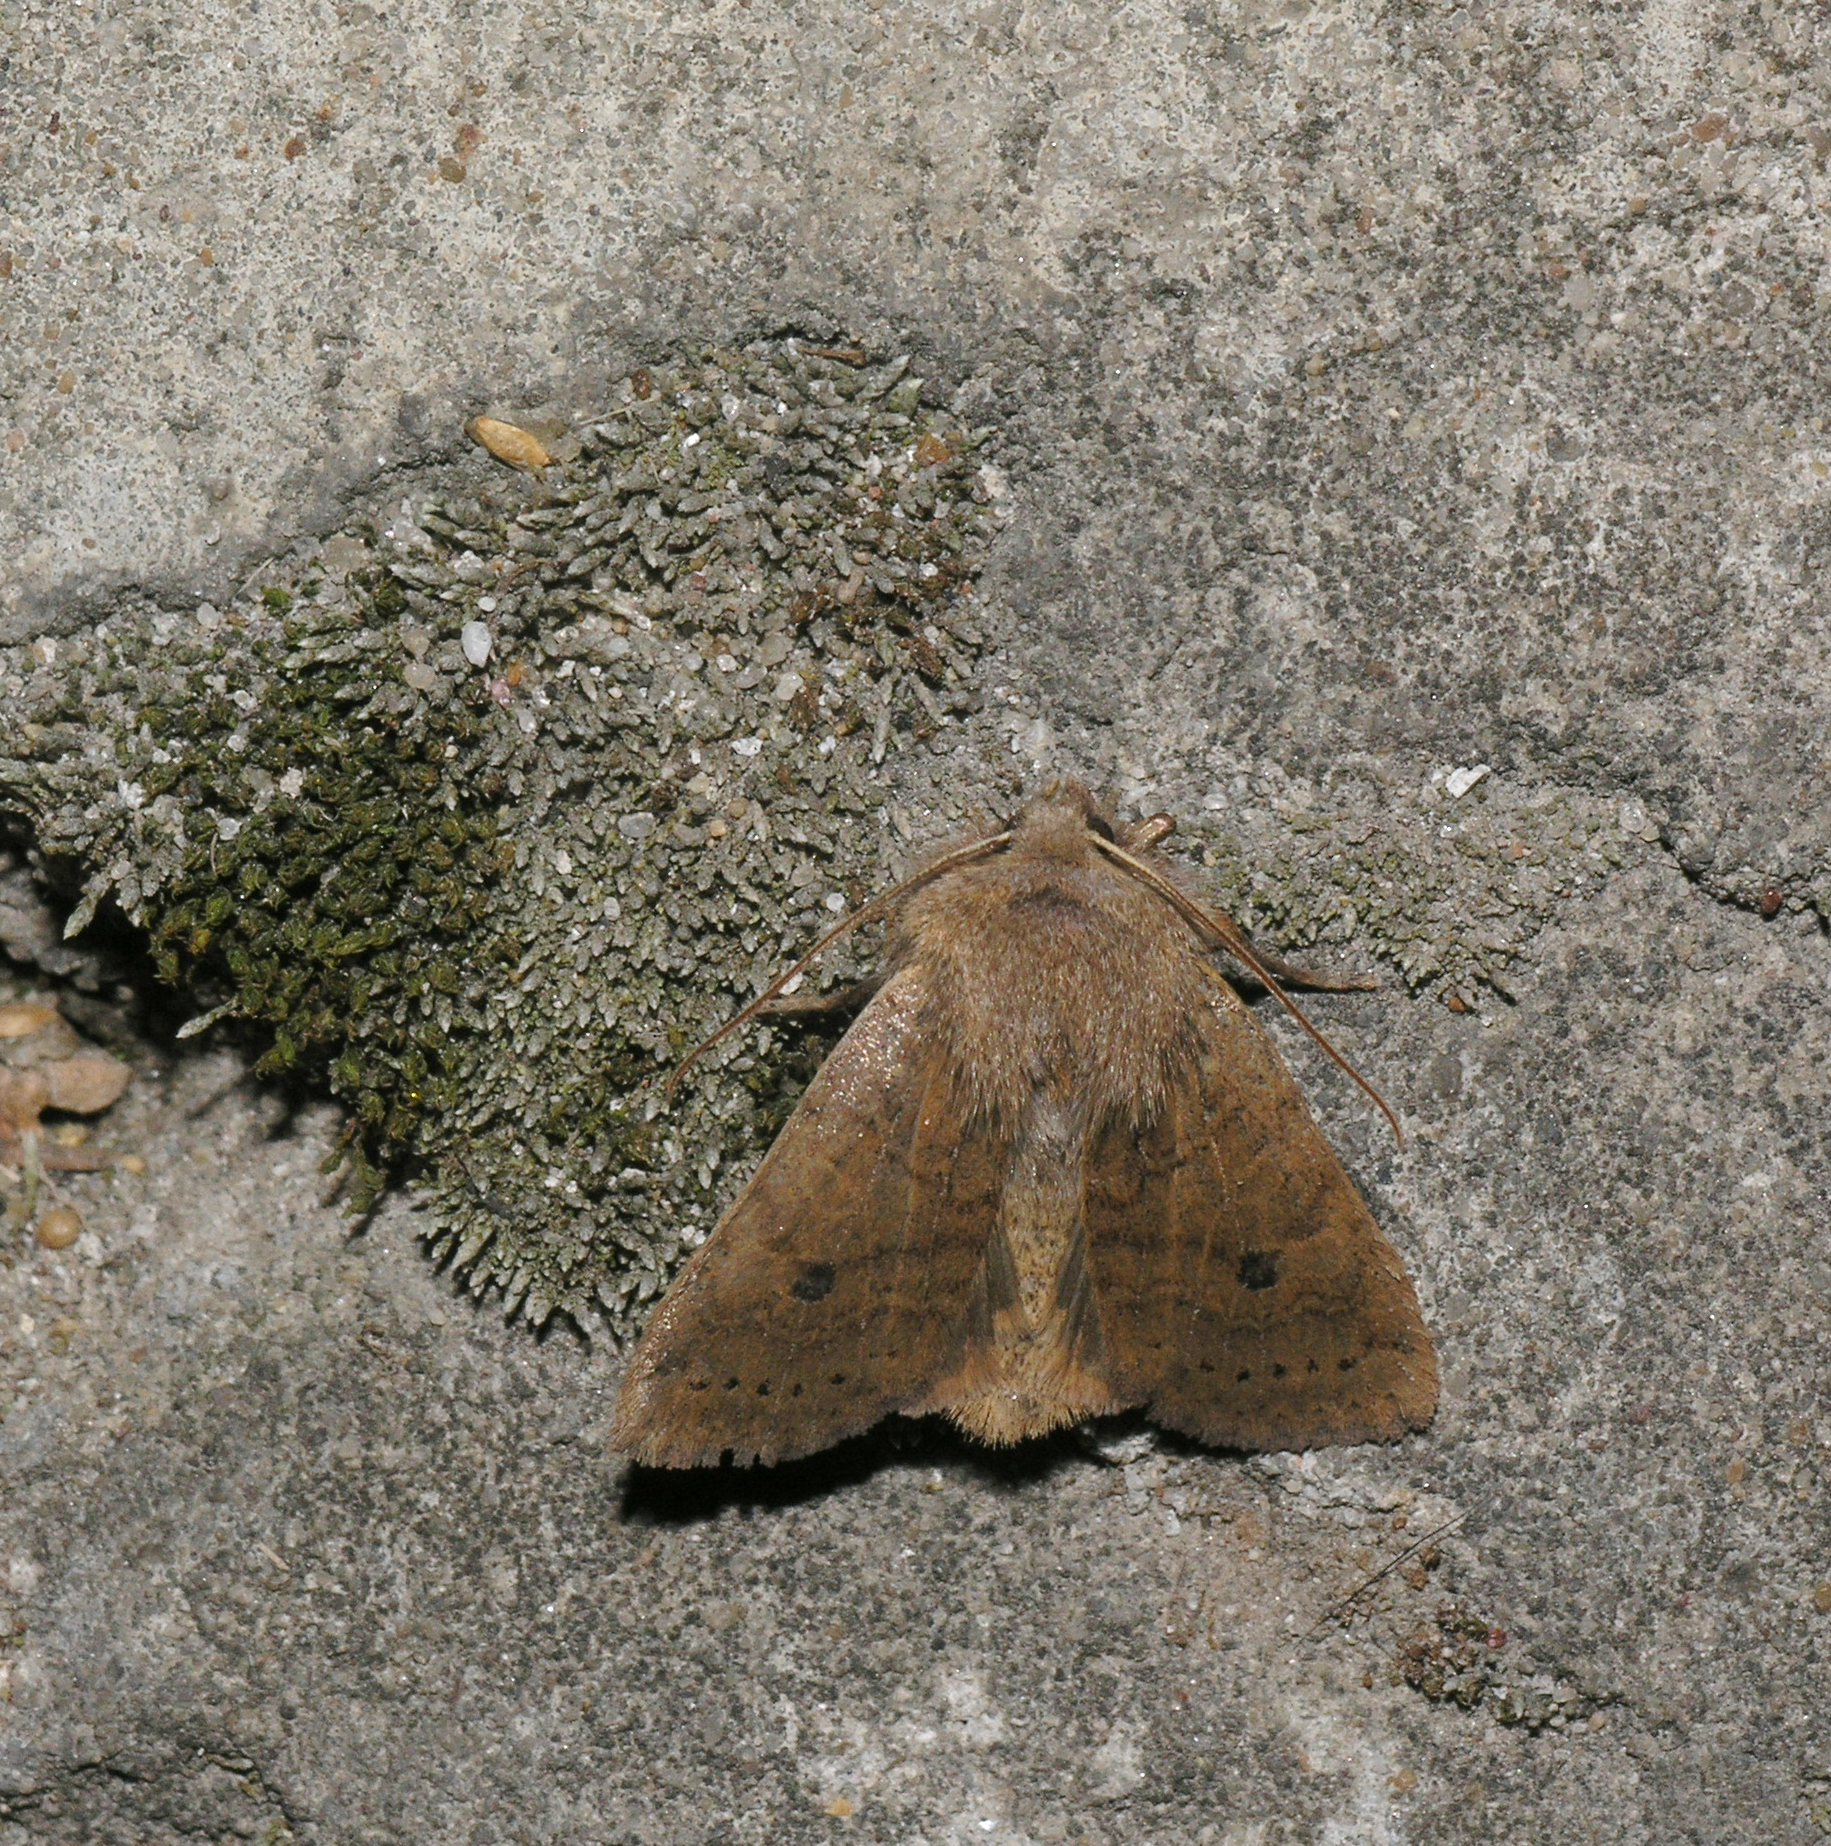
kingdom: Animalia
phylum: Arthropoda
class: Insecta
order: Lepidoptera
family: Noctuidae
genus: Conistra
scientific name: Conistra vaccinii
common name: Chestnut
